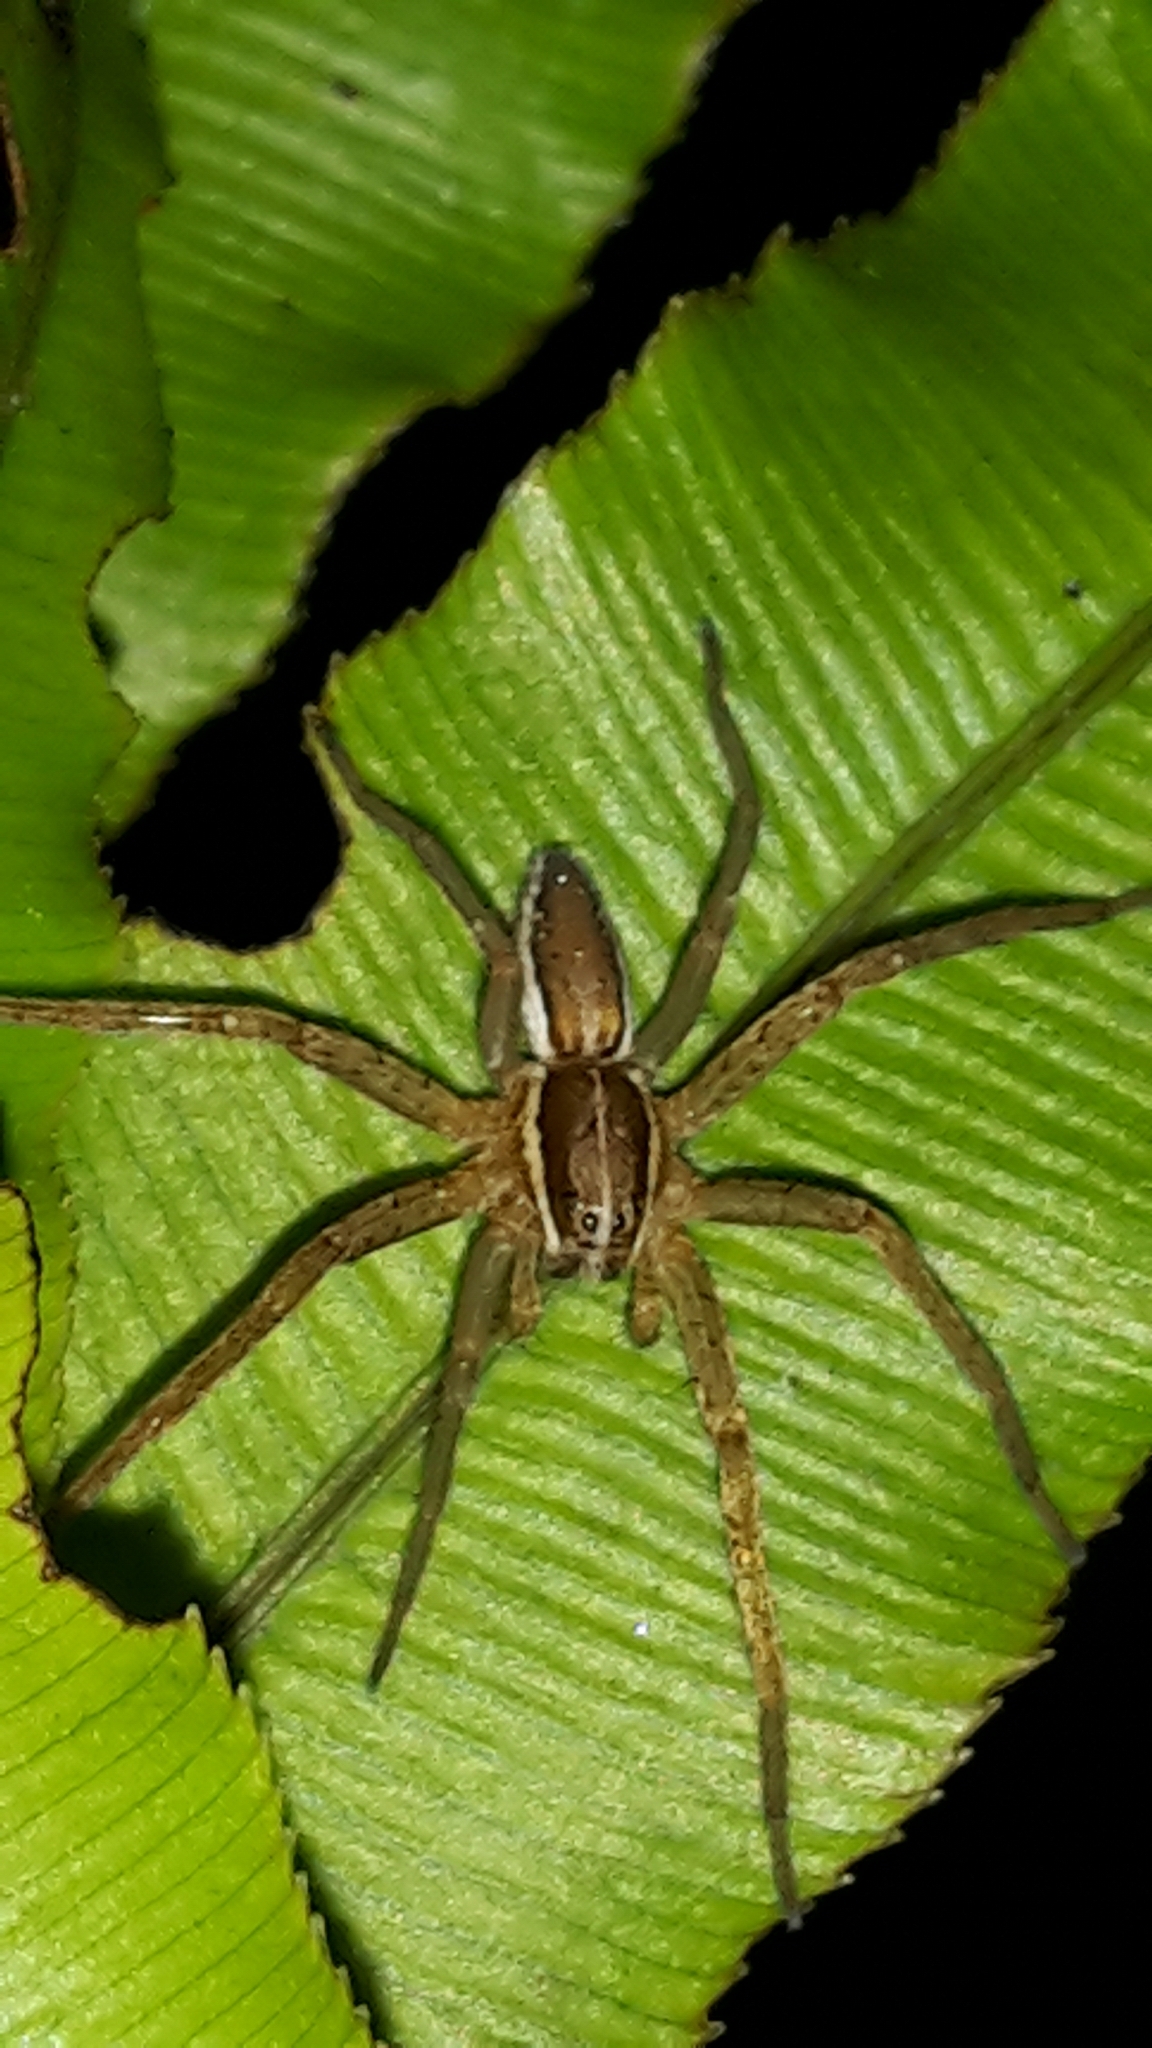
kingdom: Animalia
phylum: Arthropoda
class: Arachnida
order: Araneae
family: Pisauridae
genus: Dolomedes
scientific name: Dolomedes minor
